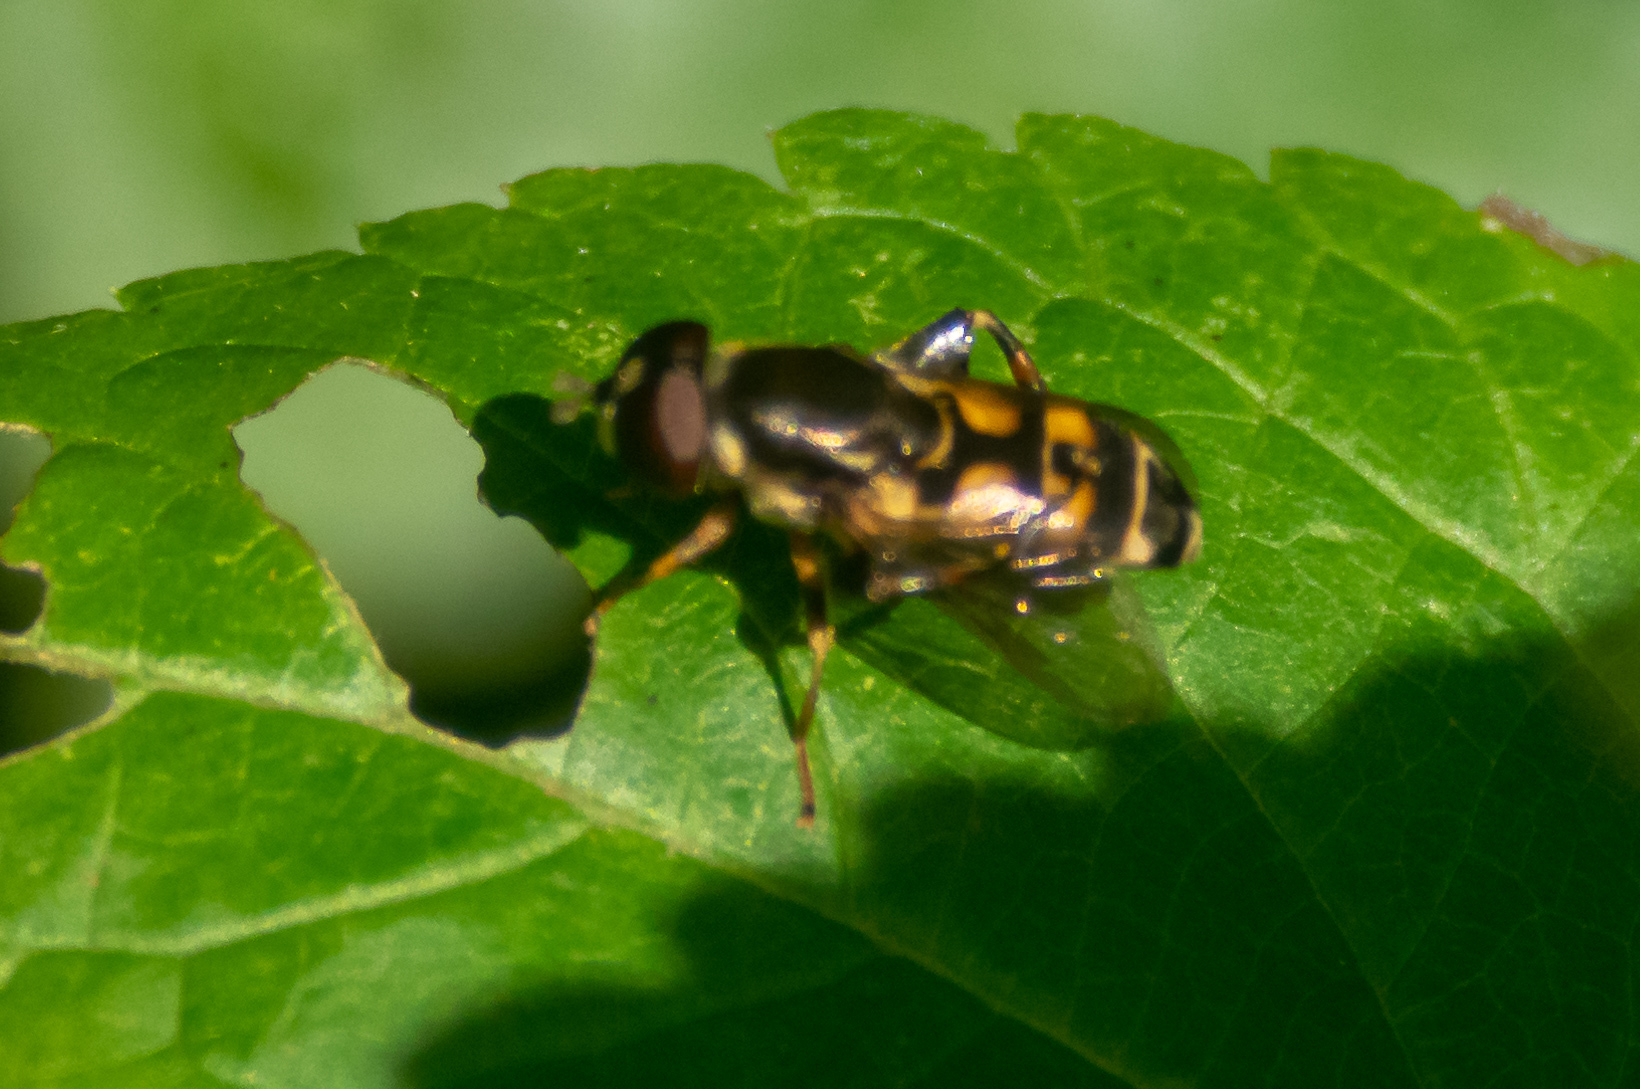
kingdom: Animalia
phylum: Arthropoda
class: Insecta
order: Diptera
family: Syrphidae
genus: Tropidia
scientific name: Tropidia albistylum
